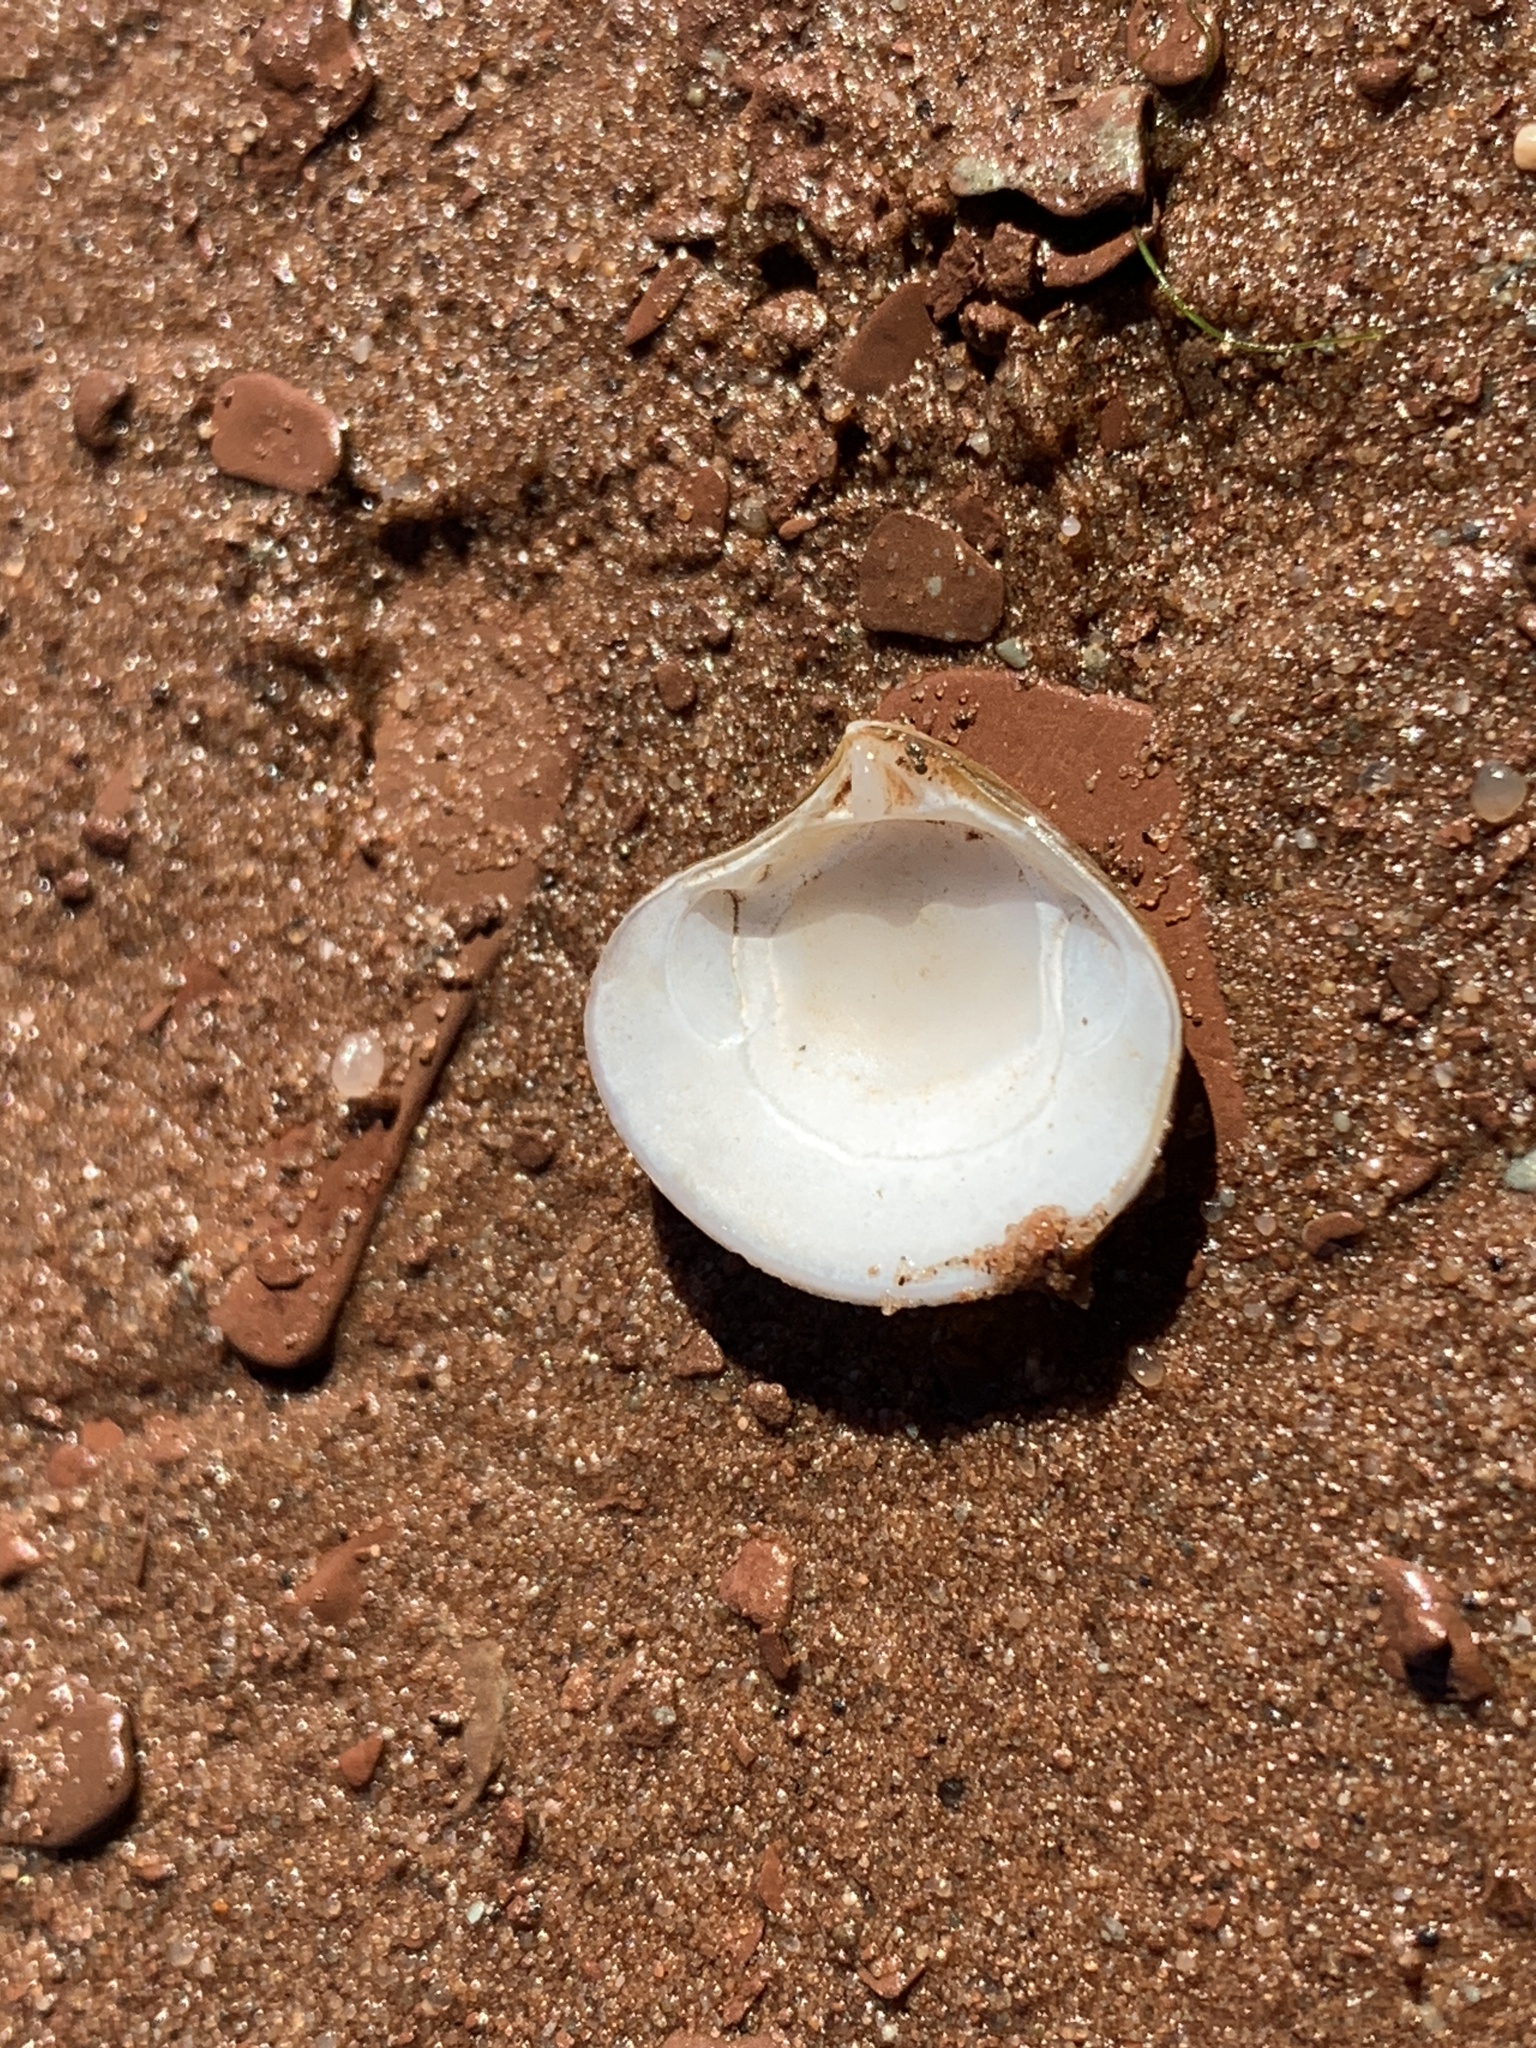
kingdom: Animalia
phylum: Mollusca
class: Bivalvia
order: Carditida
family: Astartidae
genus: Astarte
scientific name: Astarte undata
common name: Wavy astarte
